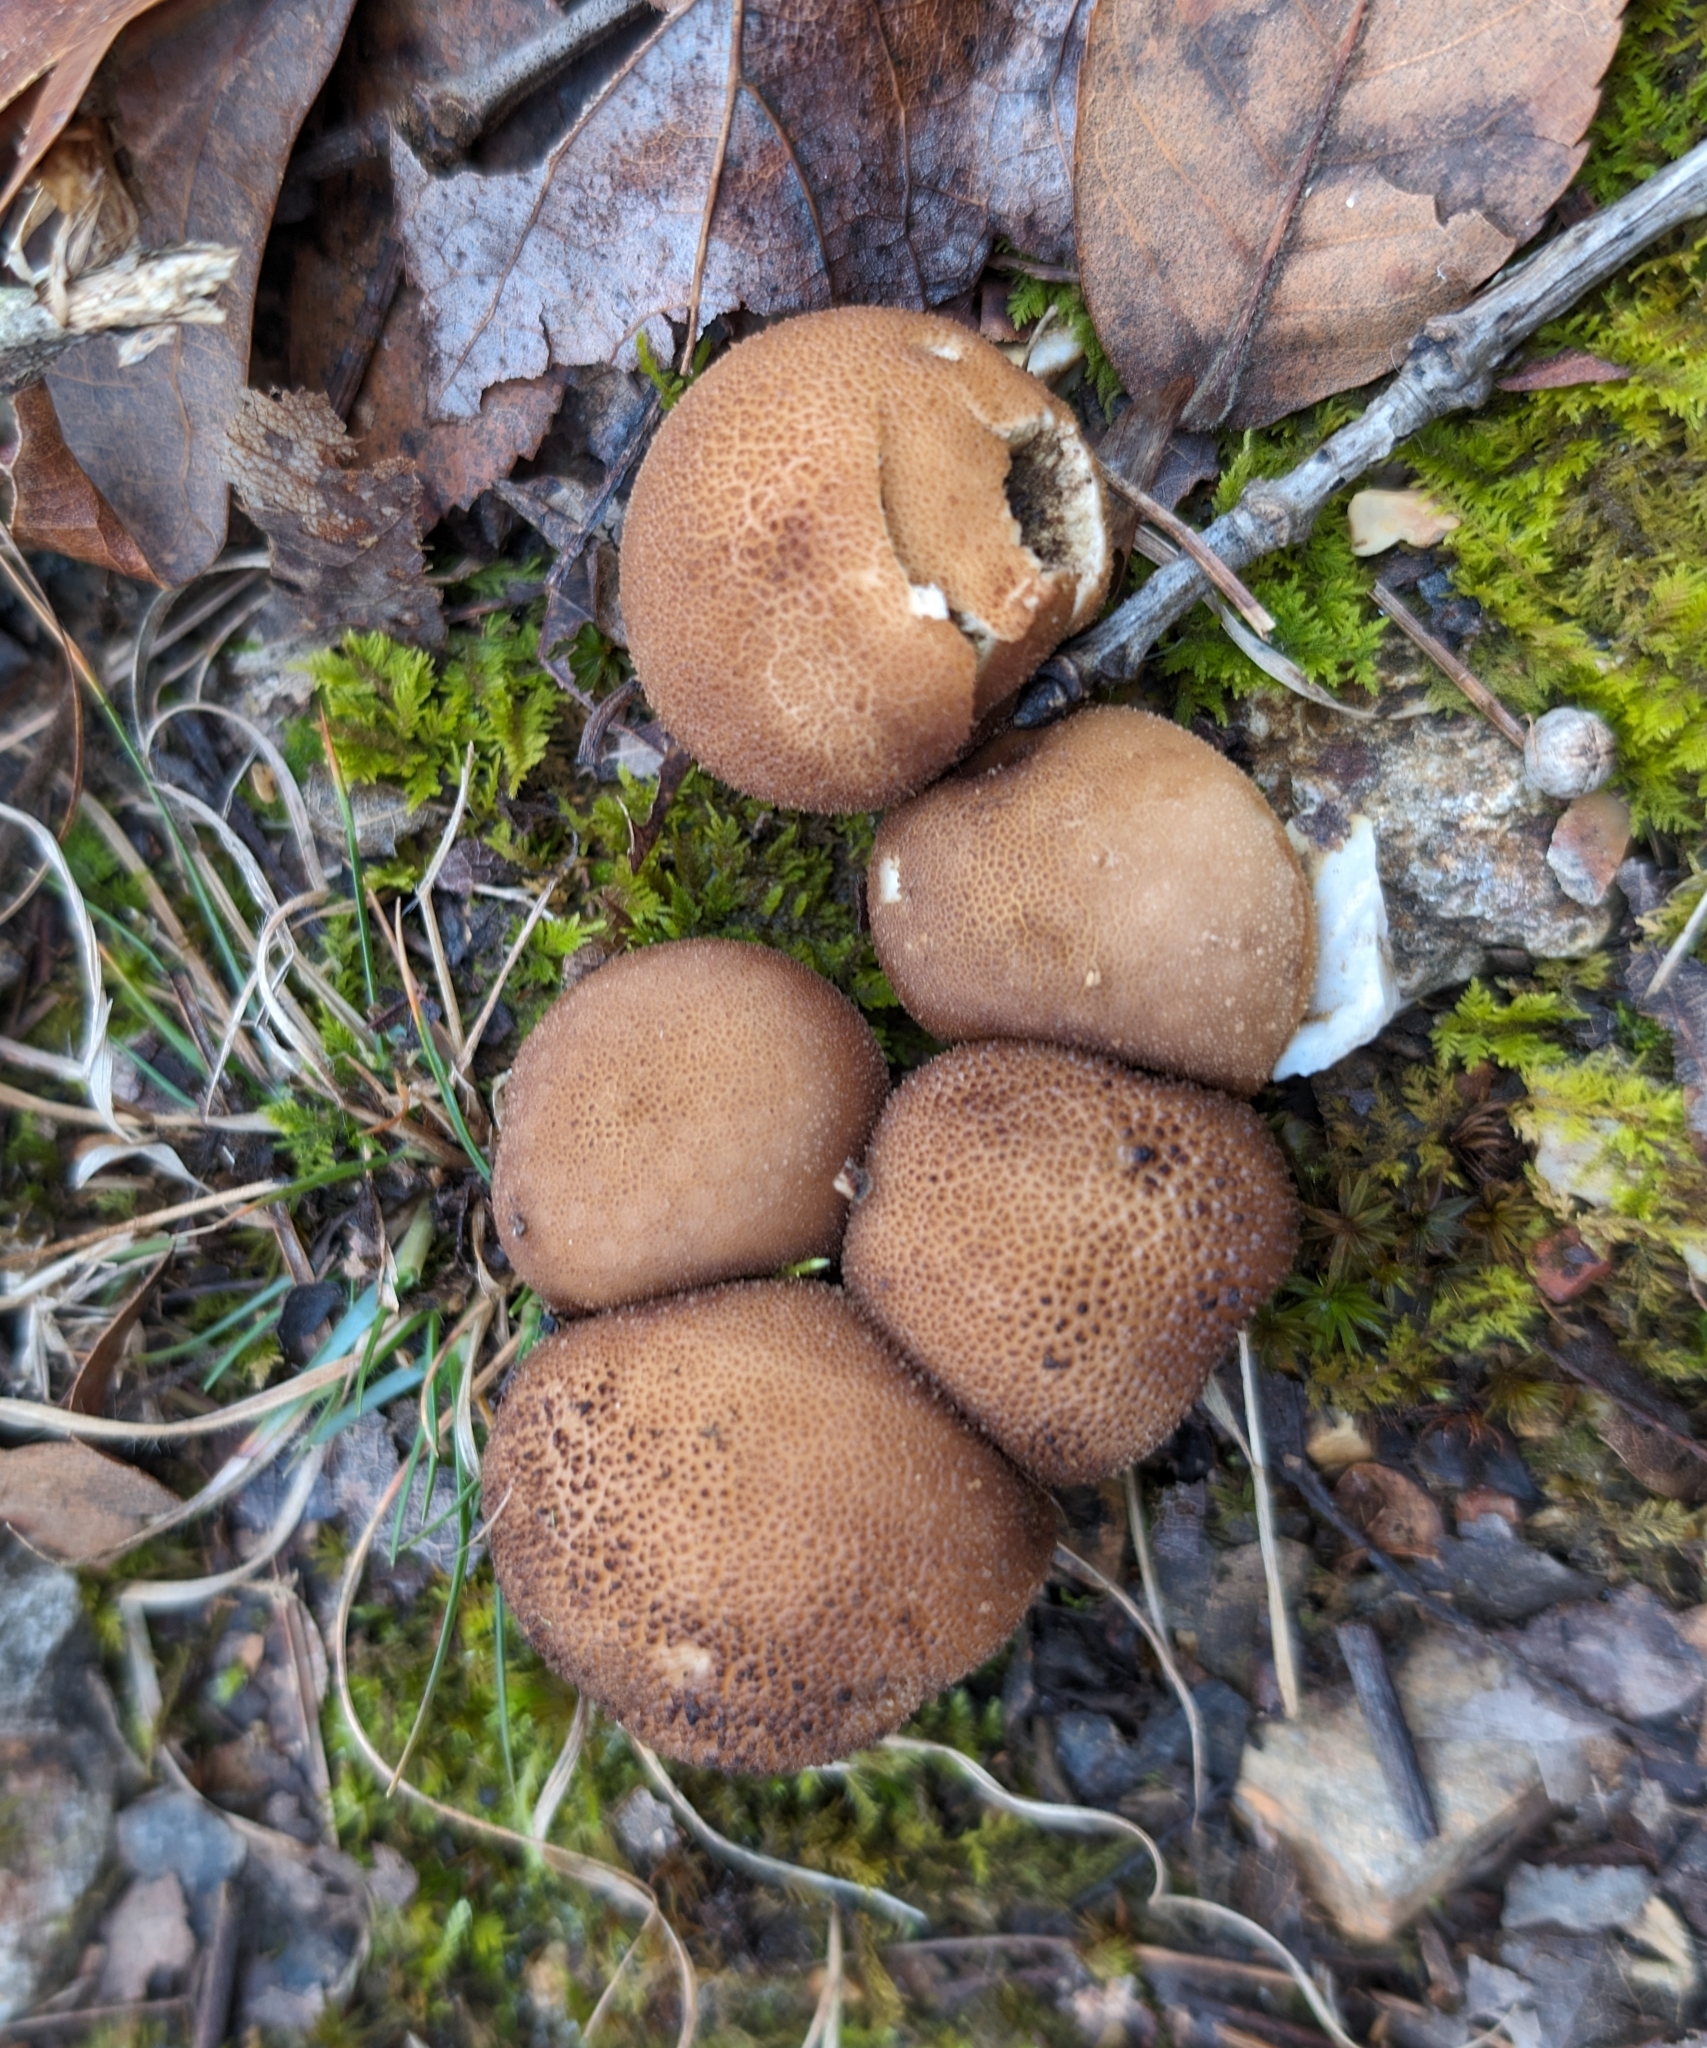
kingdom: Fungi
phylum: Basidiomycota
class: Agaricomycetes
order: Agaricales
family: Lycoperdaceae
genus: Apioperdon
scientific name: Apioperdon pyriforme
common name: Pear-shaped puffball
